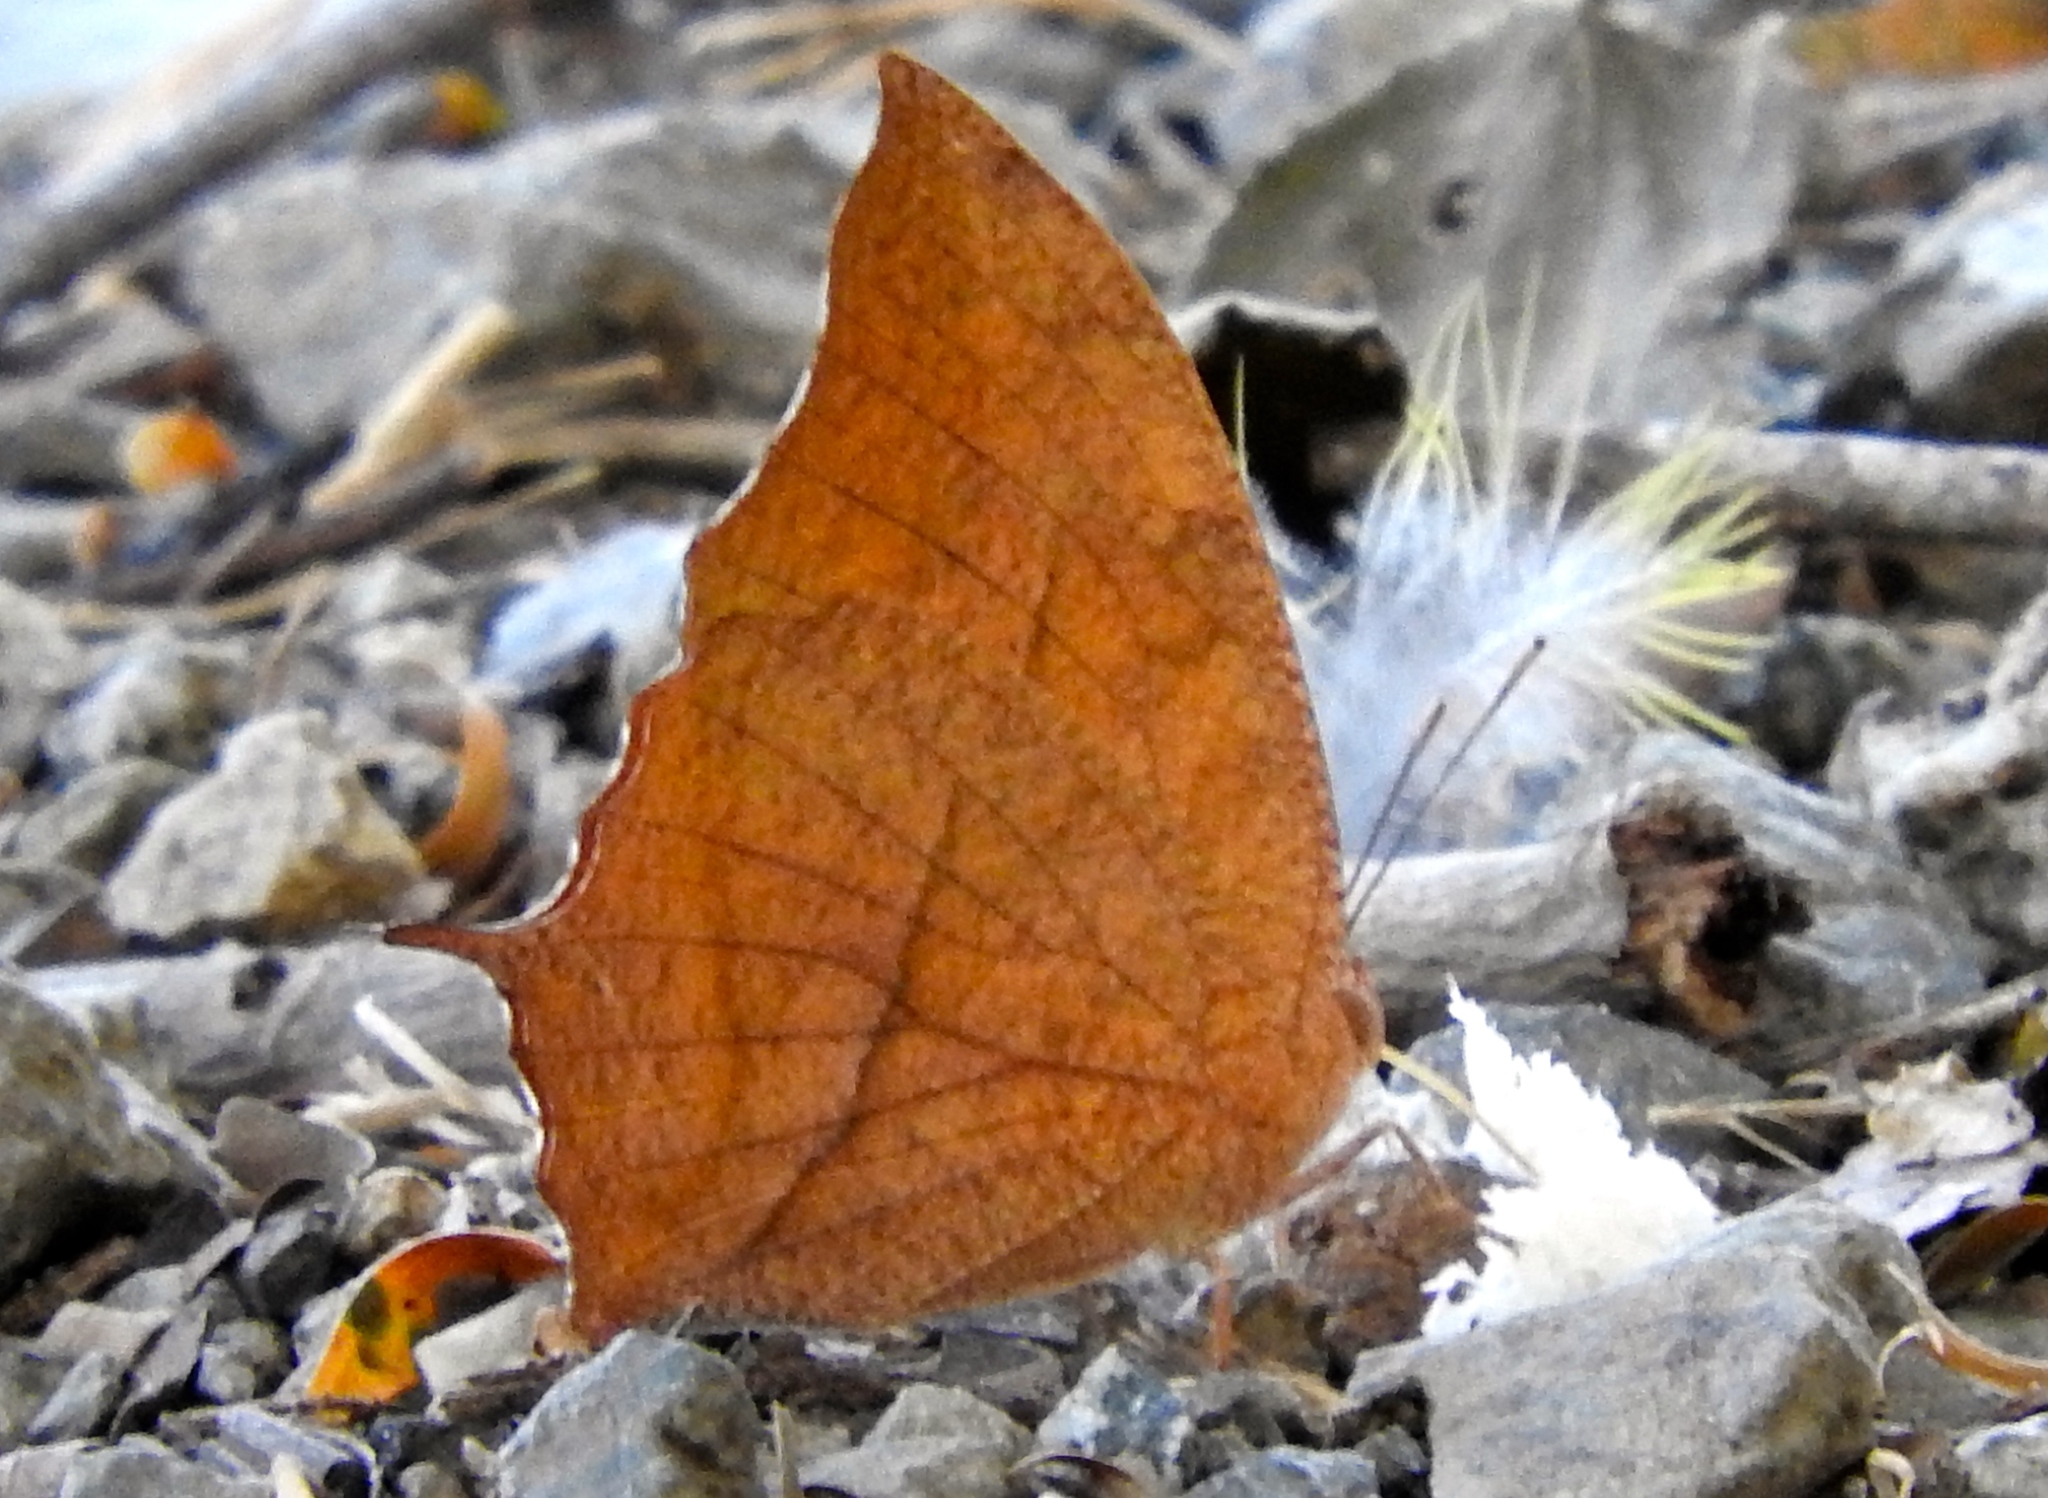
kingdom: Animalia
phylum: Arthropoda
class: Insecta
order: Lepidoptera
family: Nymphalidae
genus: Fountainea
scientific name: Fountainea
